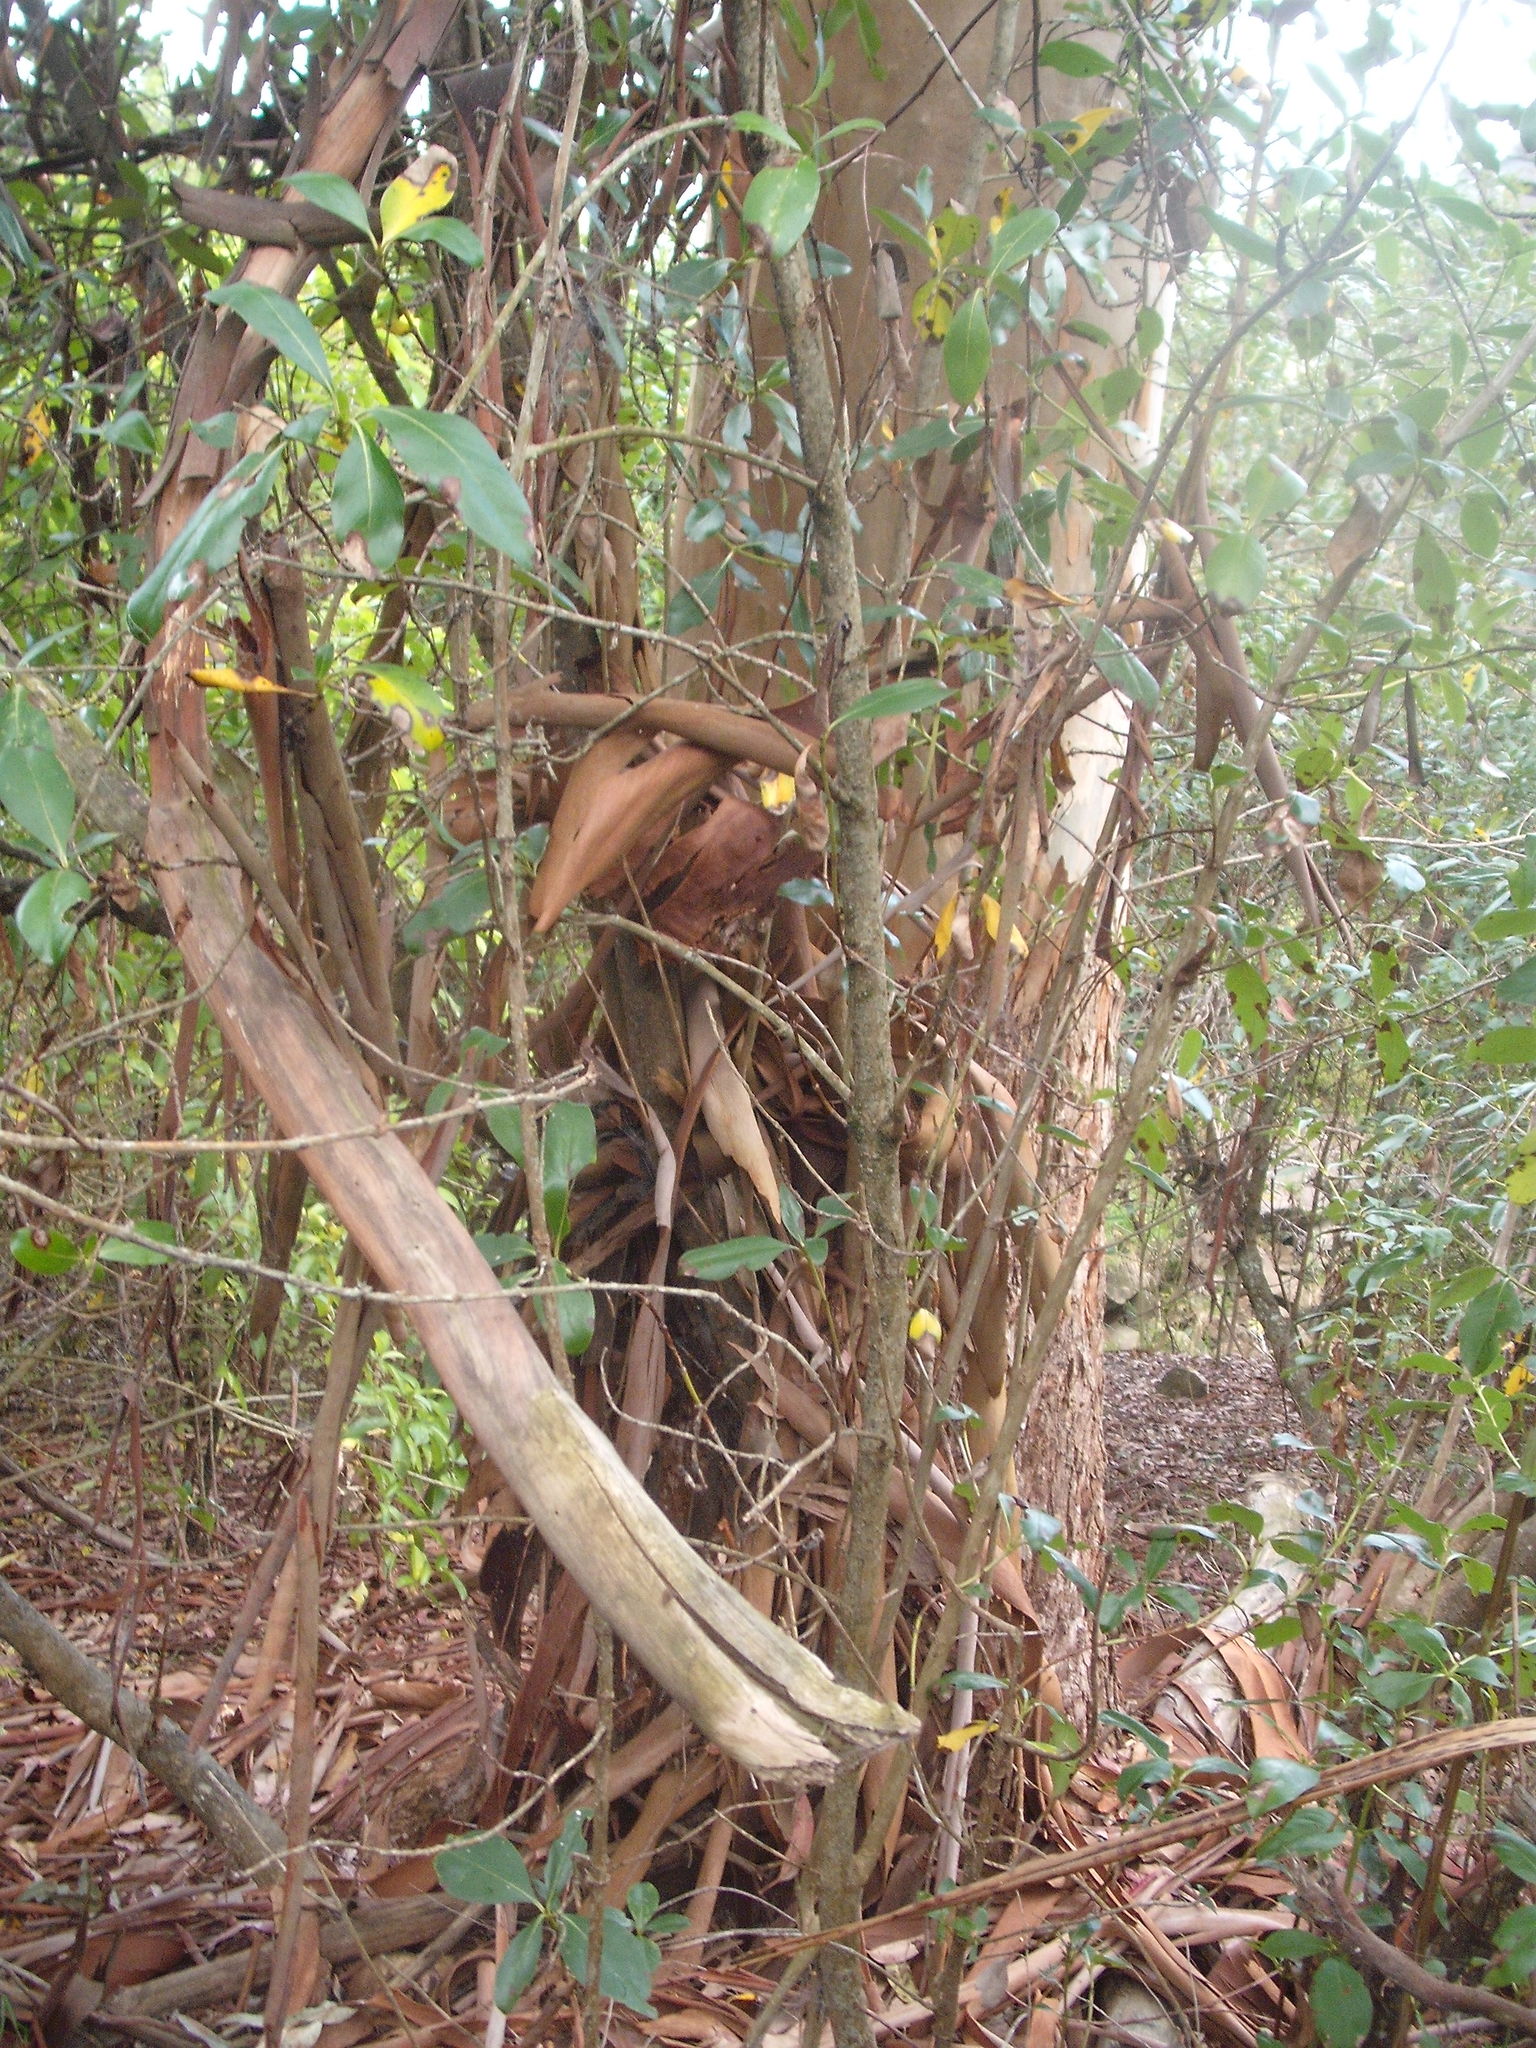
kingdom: Plantae
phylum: Tracheophyta
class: Magnoliopsida
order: Myrtales
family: Myrtaceae
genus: Eucalyptus
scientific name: Eucalyptus saligna
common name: Blue gum
